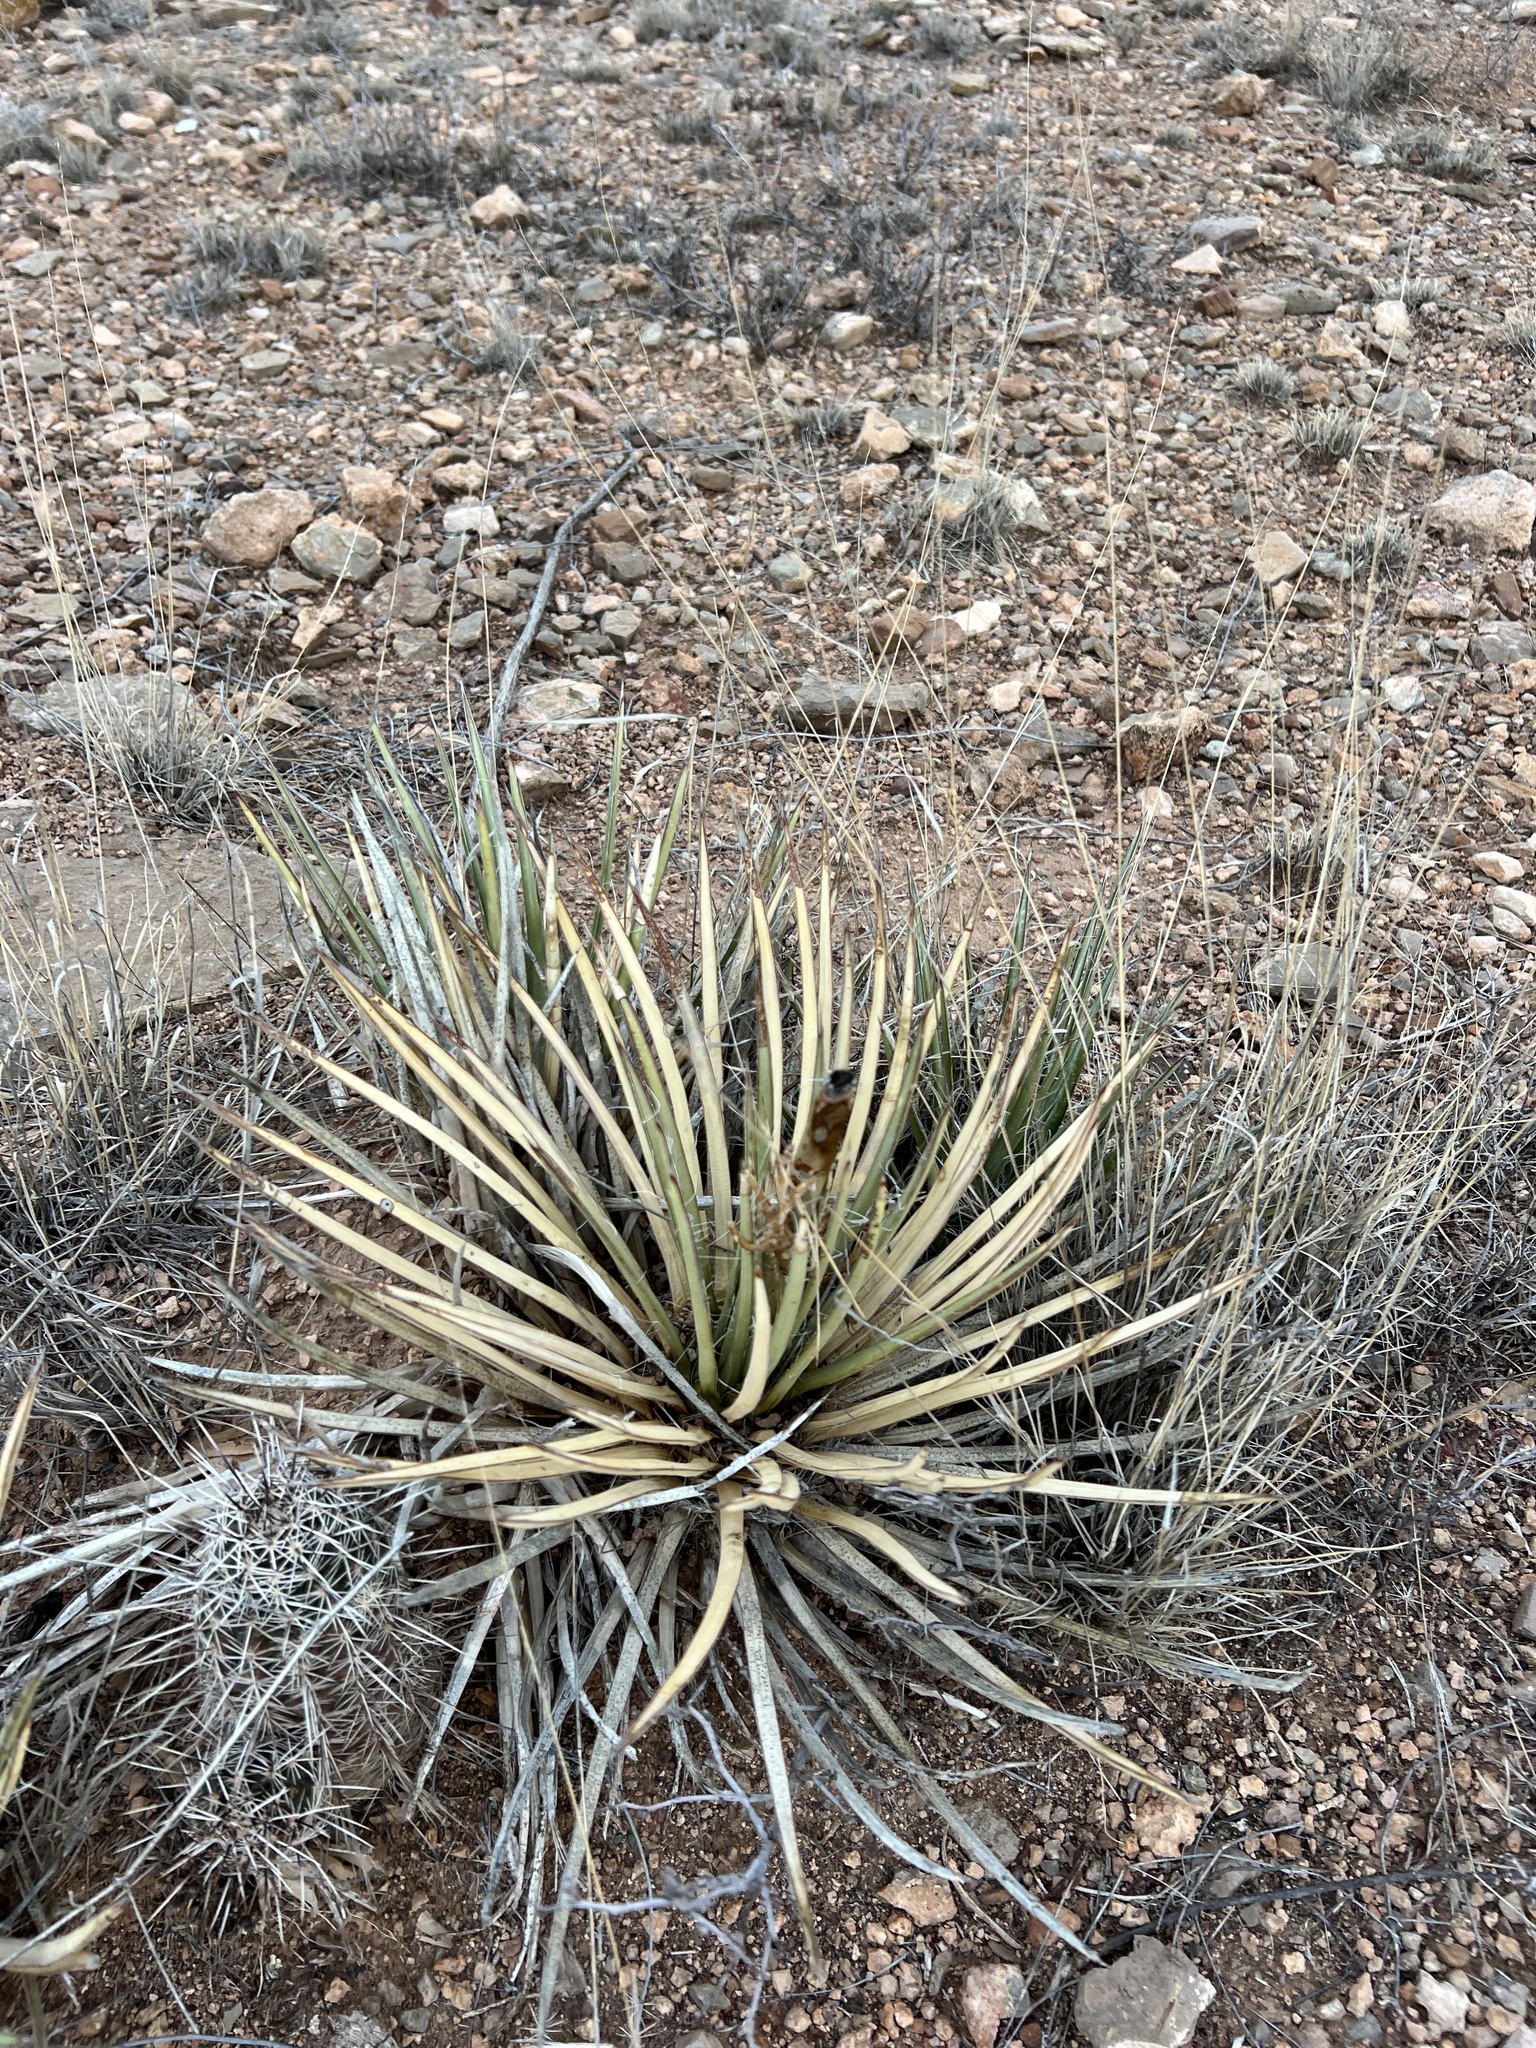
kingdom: Plantae
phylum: Tracheophyta
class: Liliopsida
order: Asparagales
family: Asparagaceae
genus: Agave
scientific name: Agave schottii
